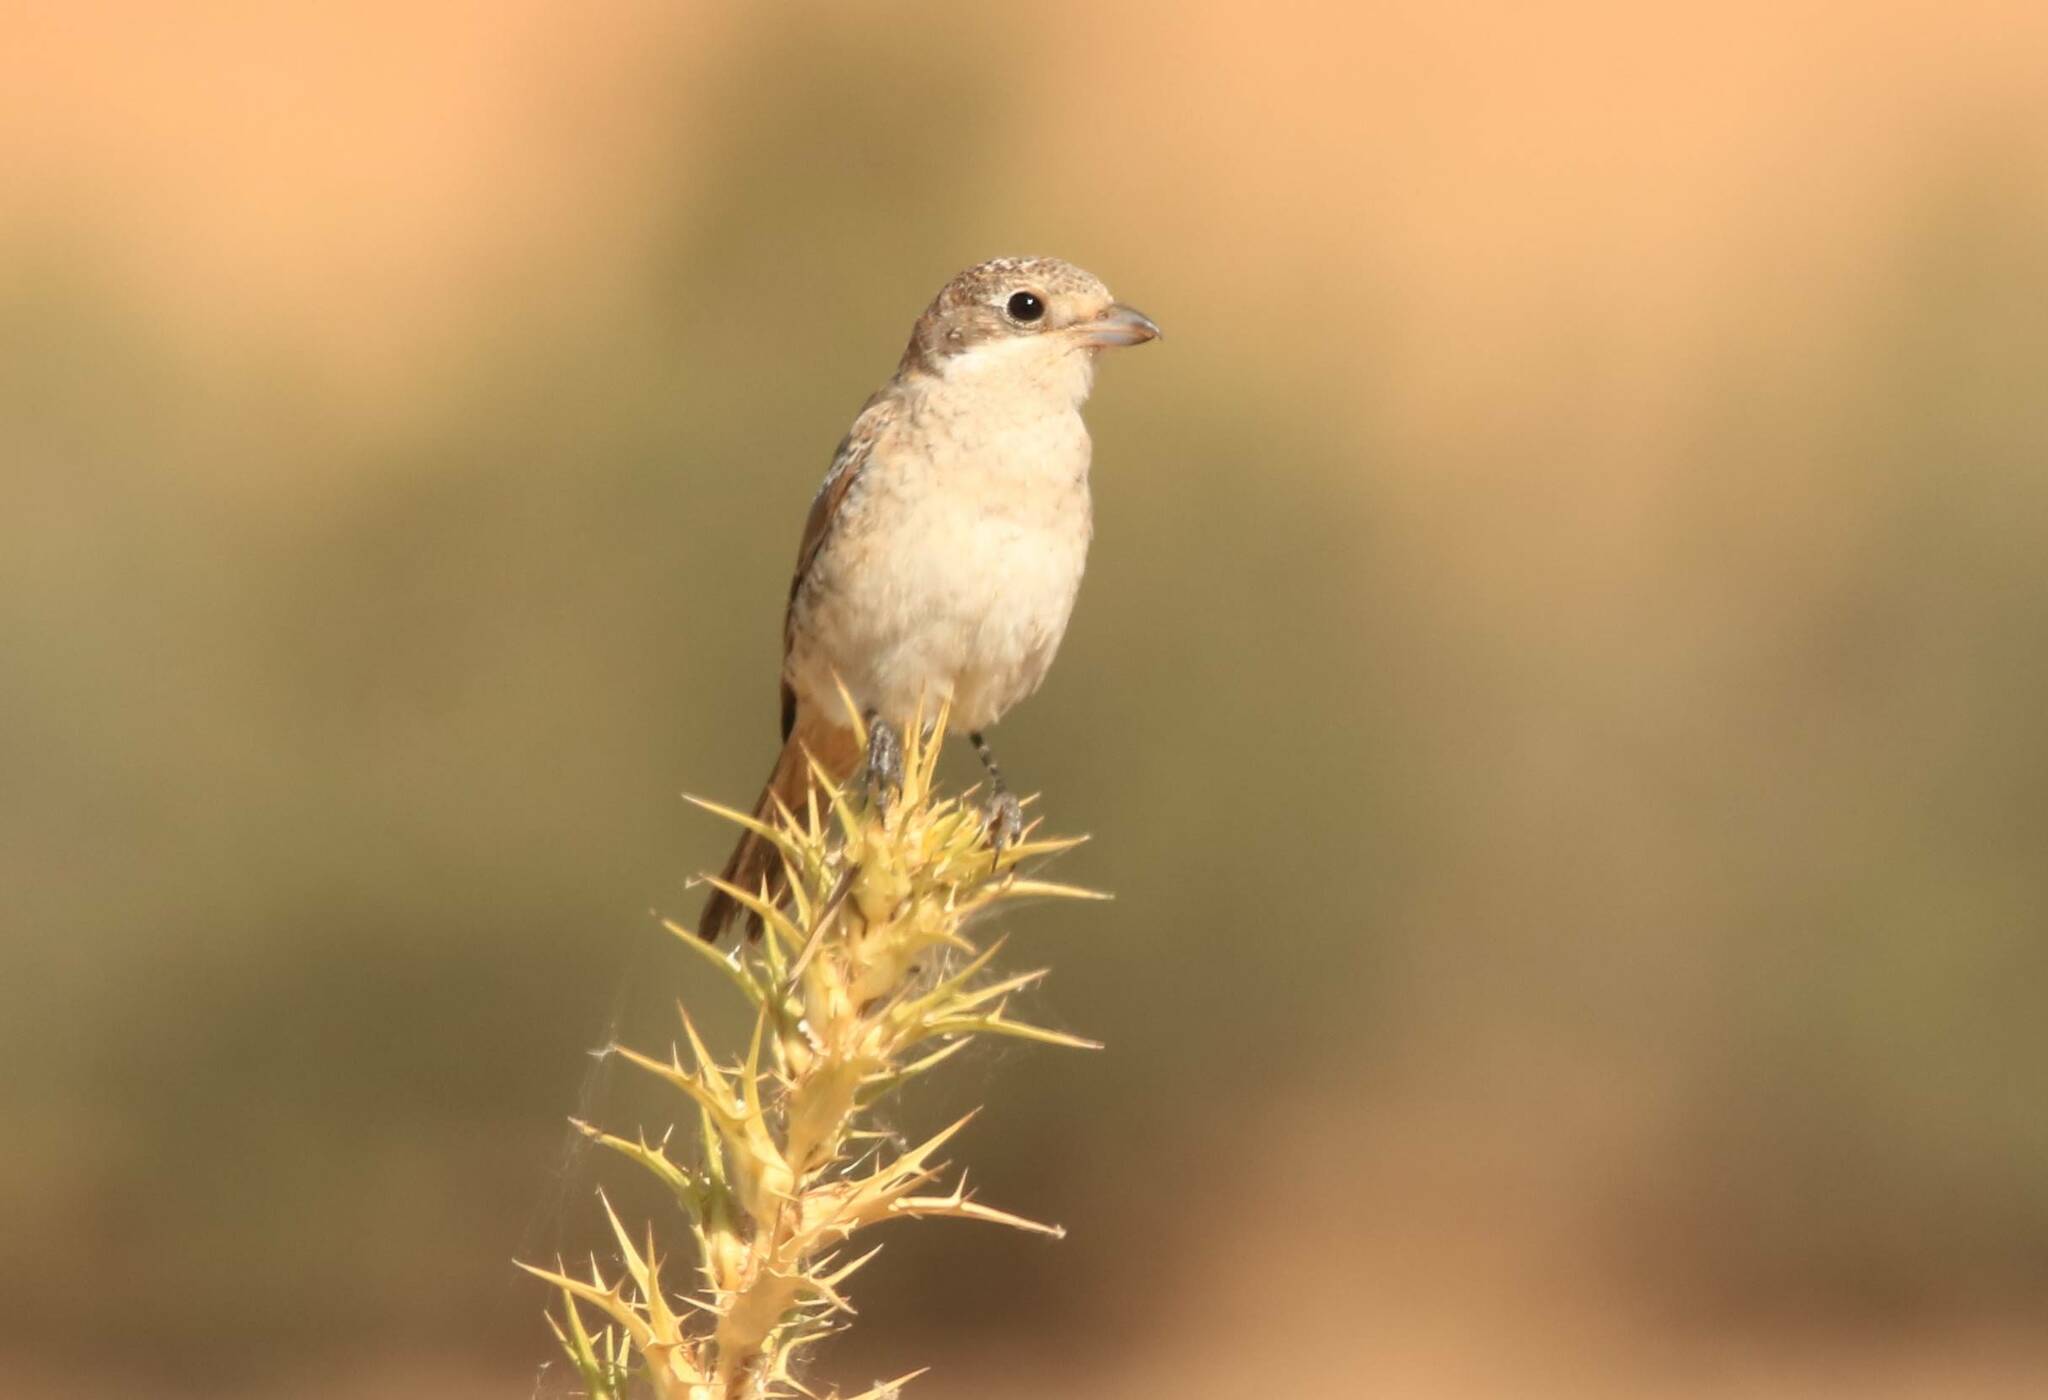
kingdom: Animalia
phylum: Chordata
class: Aves
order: Passeriformes
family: Laniidae
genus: Lanius
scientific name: Lanius senator
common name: Woodchat shrike
